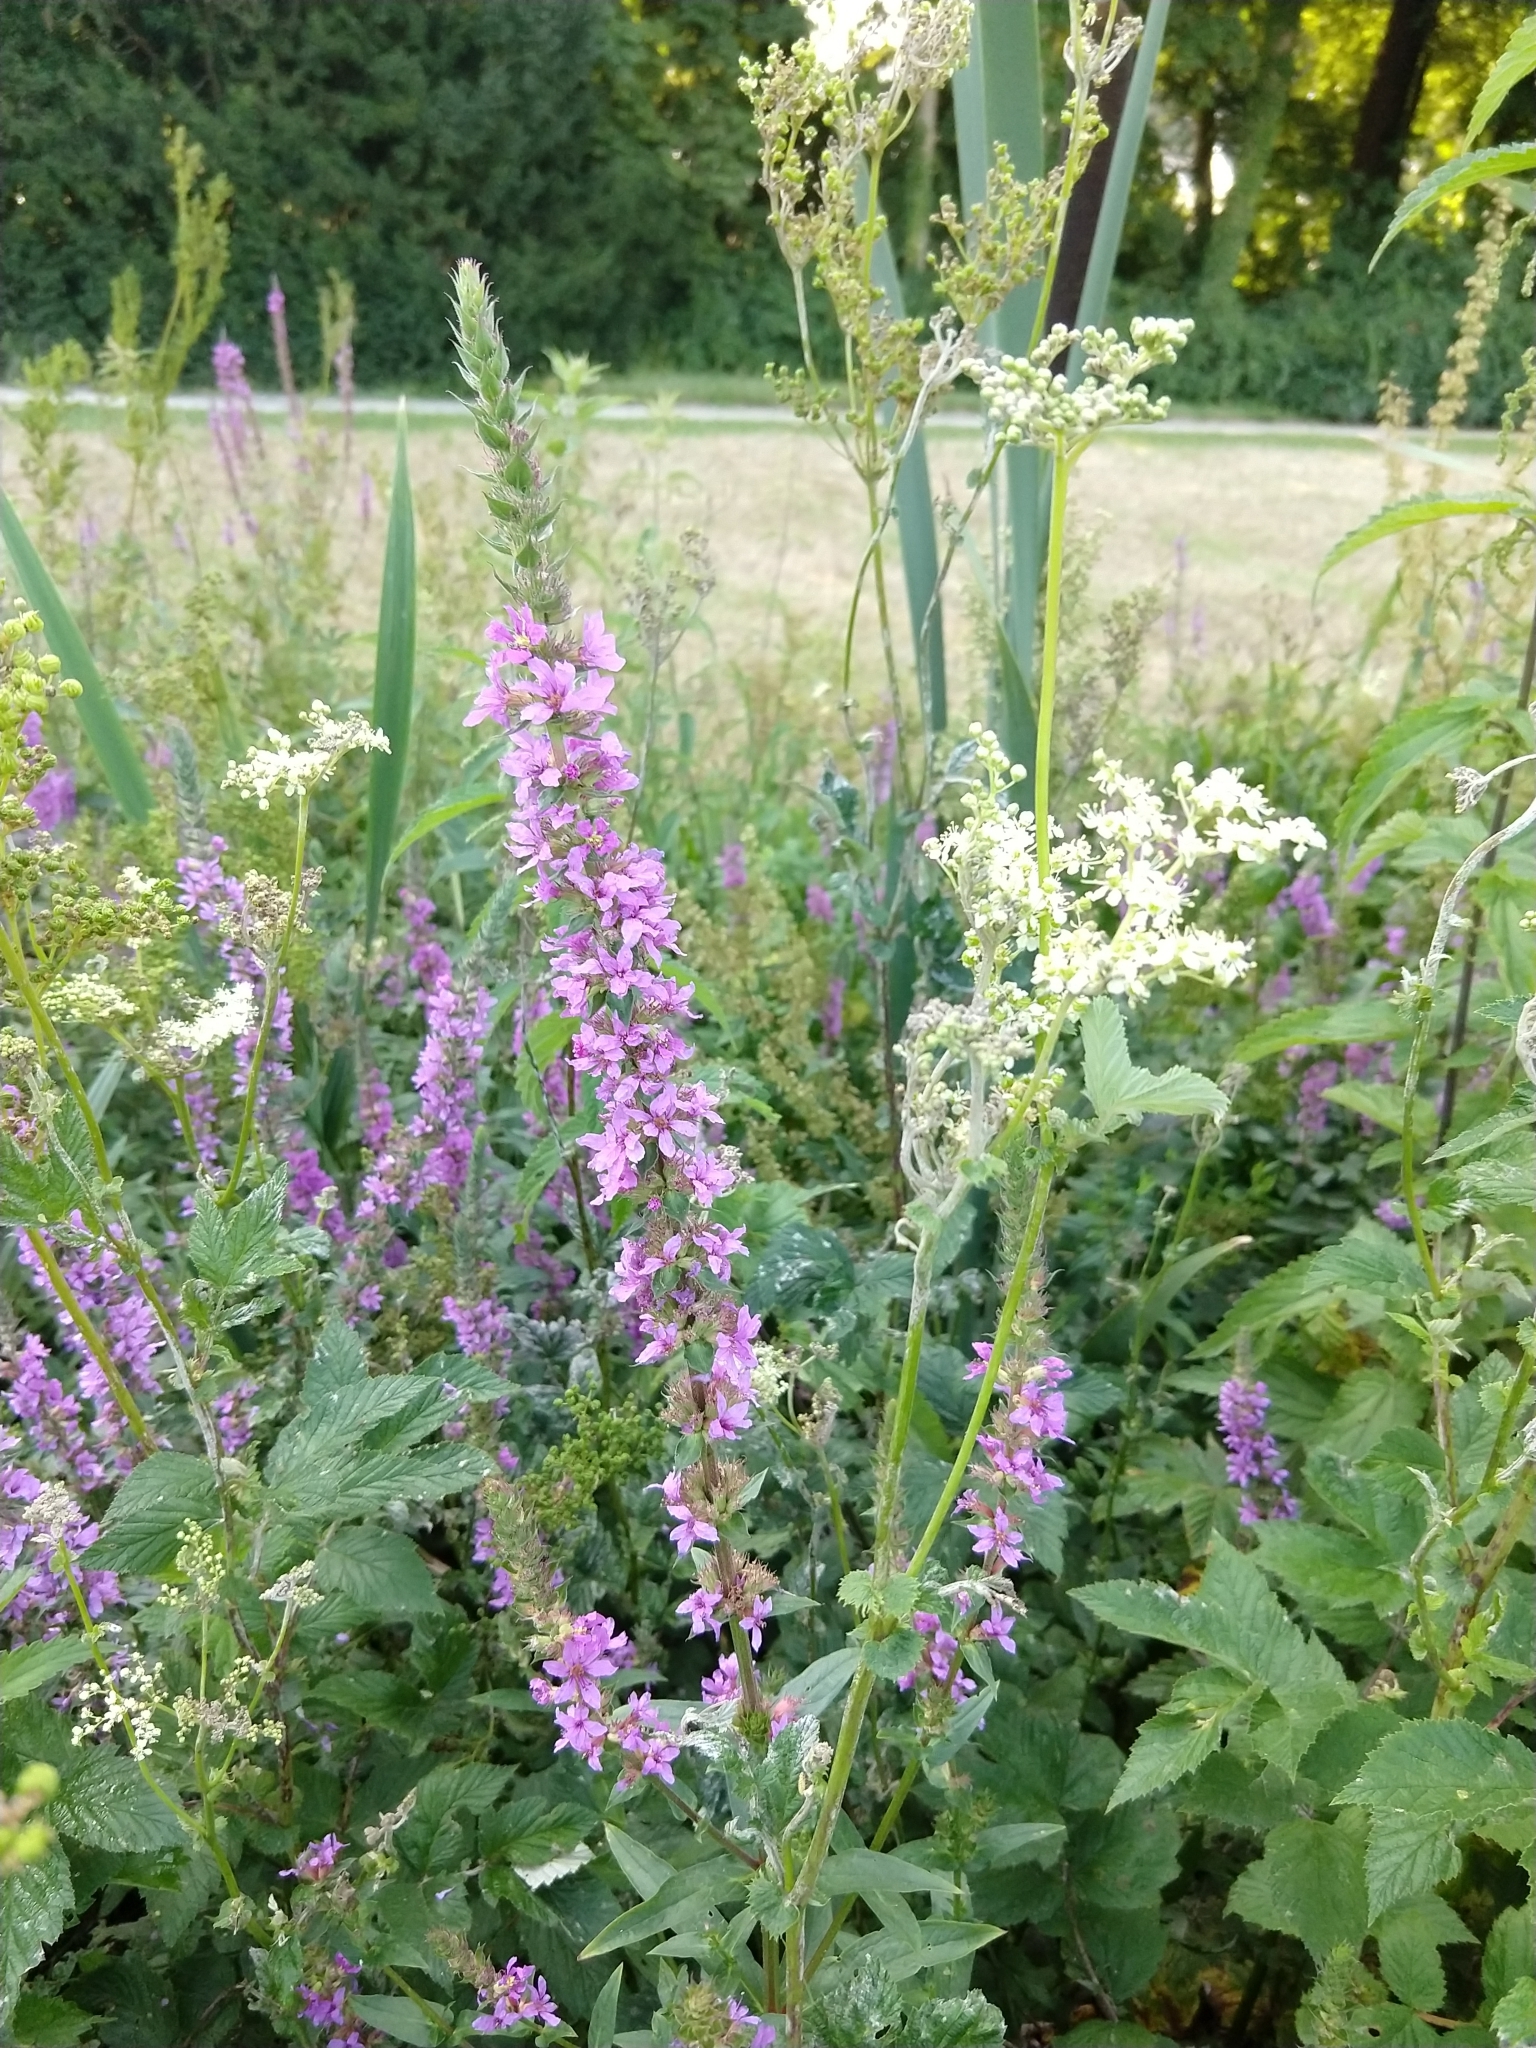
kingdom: Plantae
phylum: Tracheophyta
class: Magnoliopsida
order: Myrtales
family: Lythraceae
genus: Lythrum
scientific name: Lythrum salicaria
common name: Purple loosestrife
